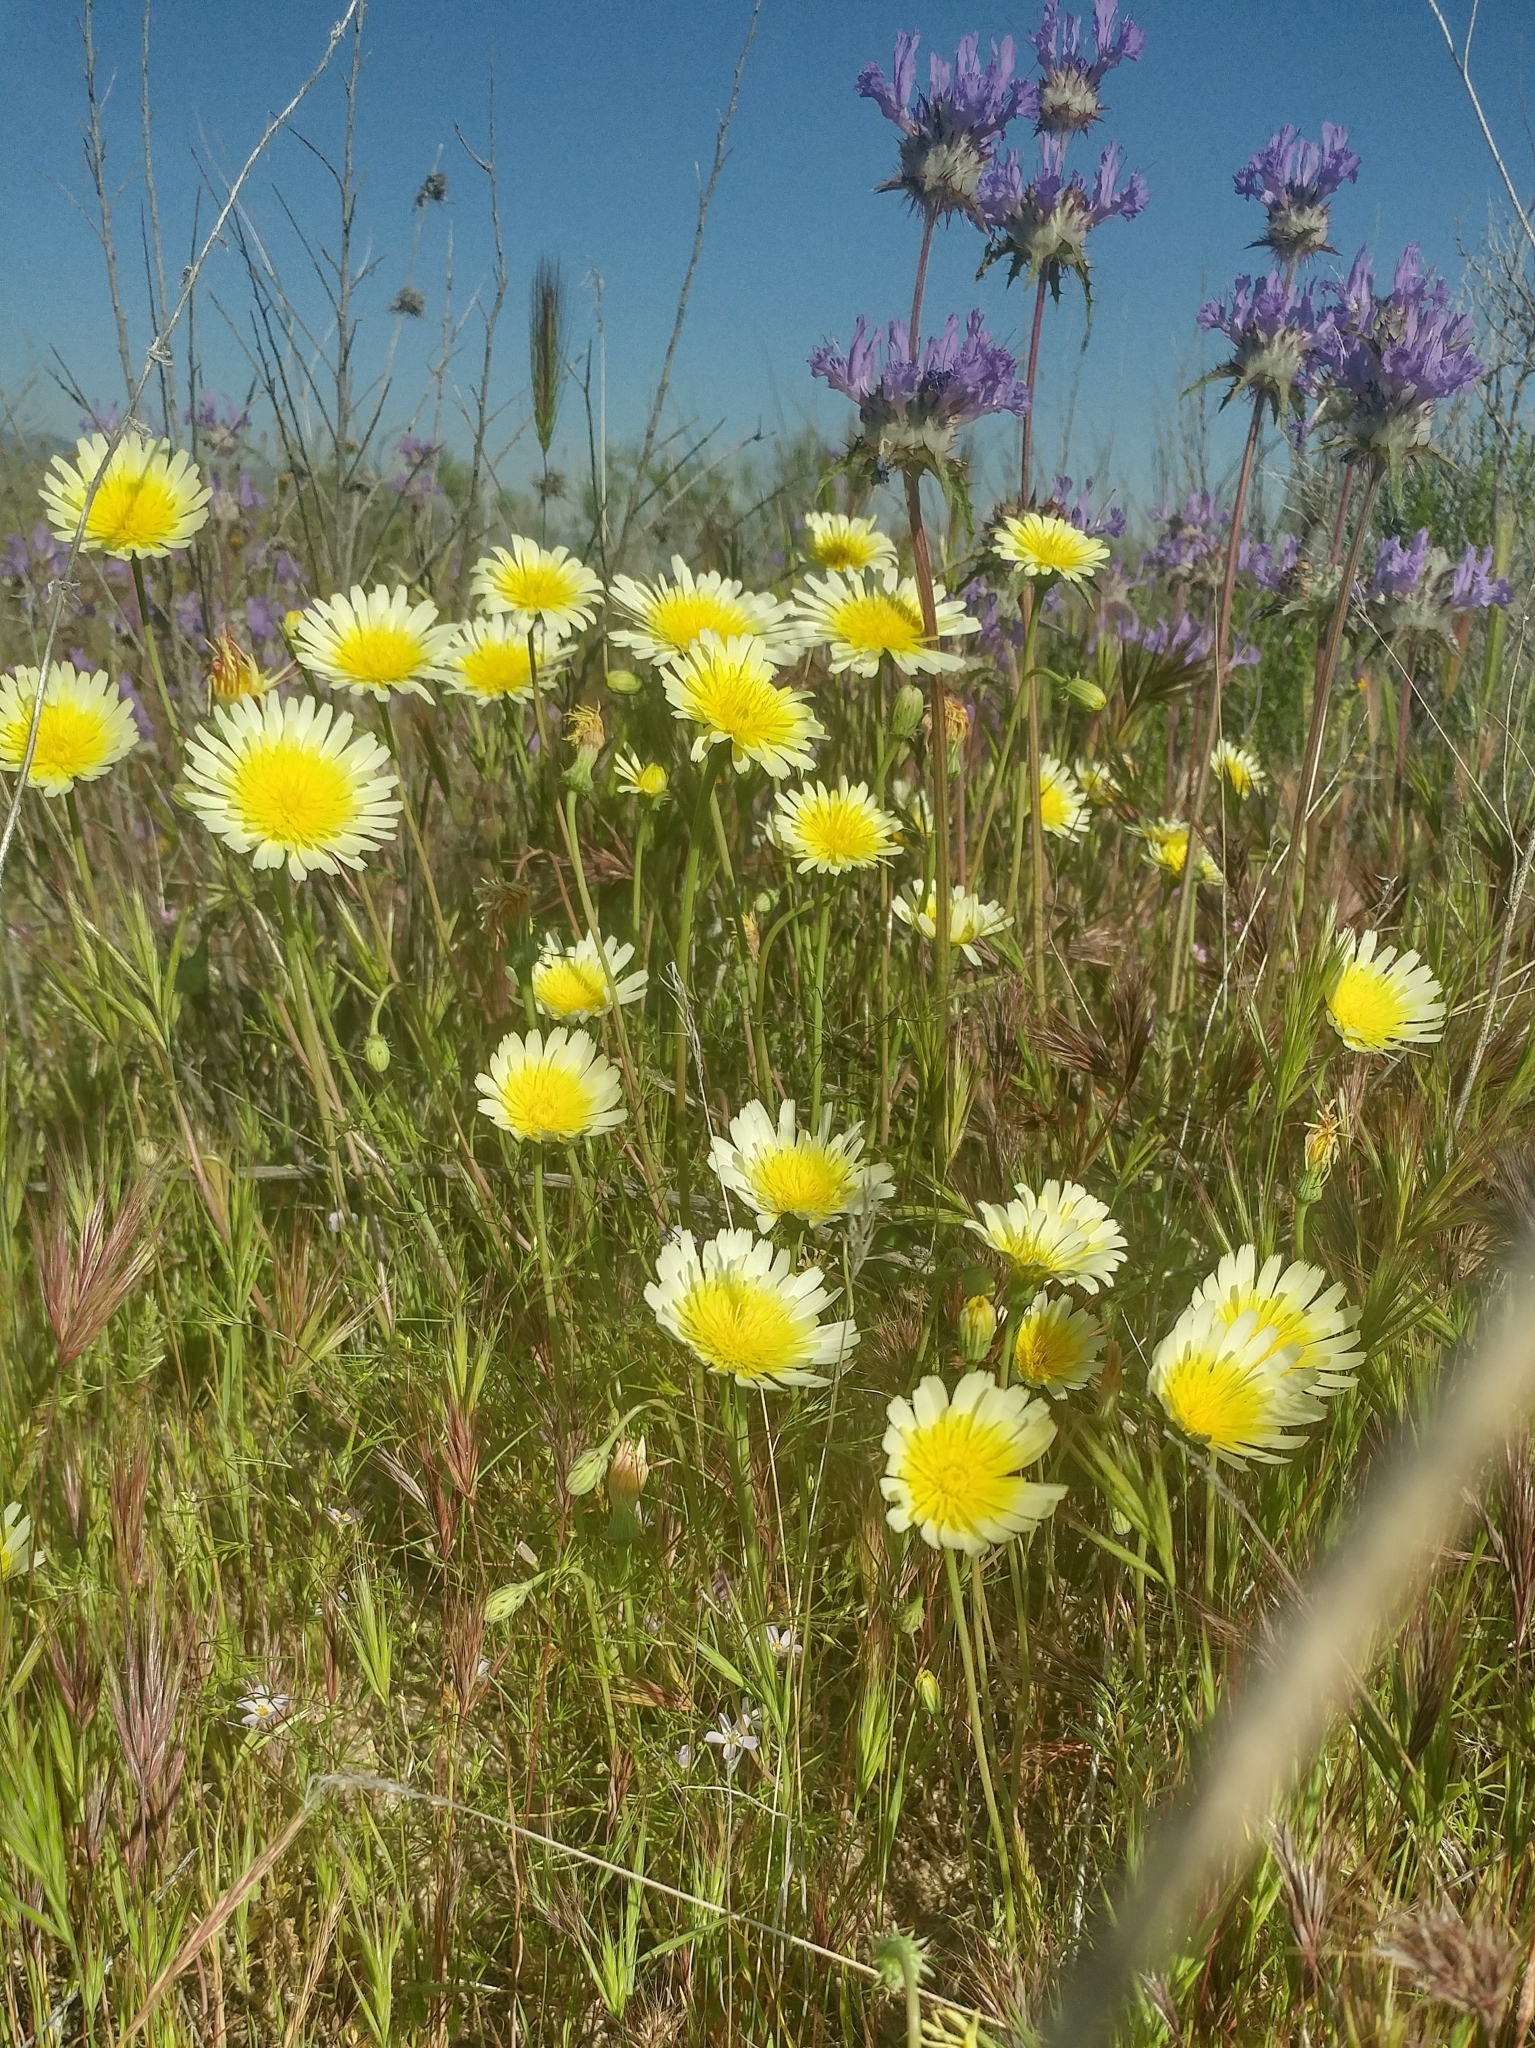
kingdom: Plantae
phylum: Tracheophyta
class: Magnoliopsida
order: Asterales
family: Asteraceae
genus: Malacothrix
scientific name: Malacothrix glabrata
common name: Smooth desert-dandelion
